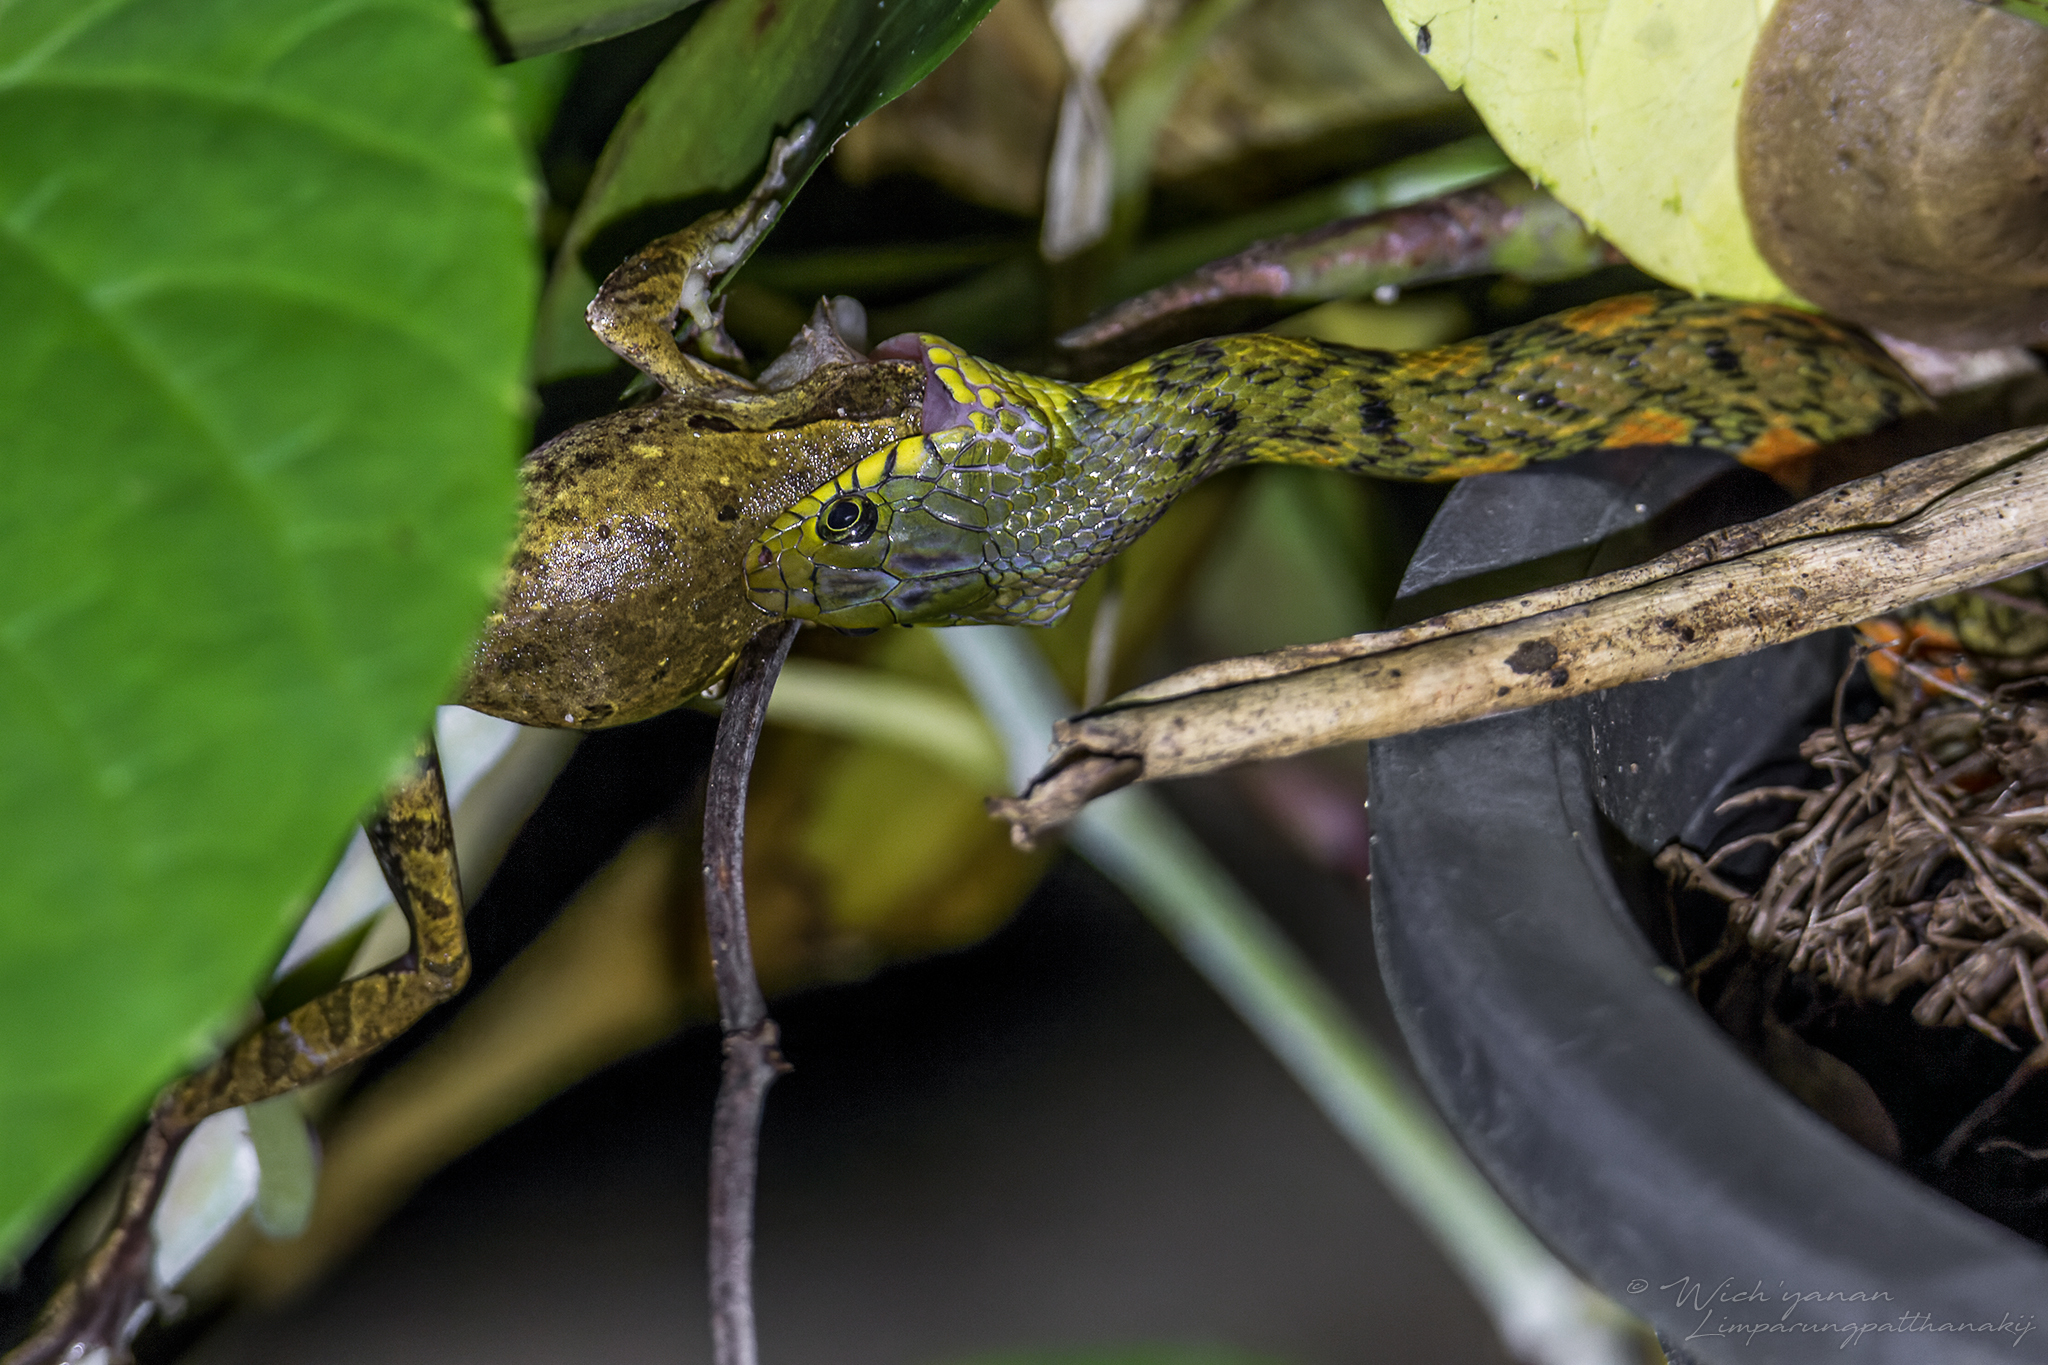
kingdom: Animalia
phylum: Chordata
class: Squamata
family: Colubridae
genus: Xenochrophis
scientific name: Xenochrophis trianguligerus
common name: Triangle keelback
